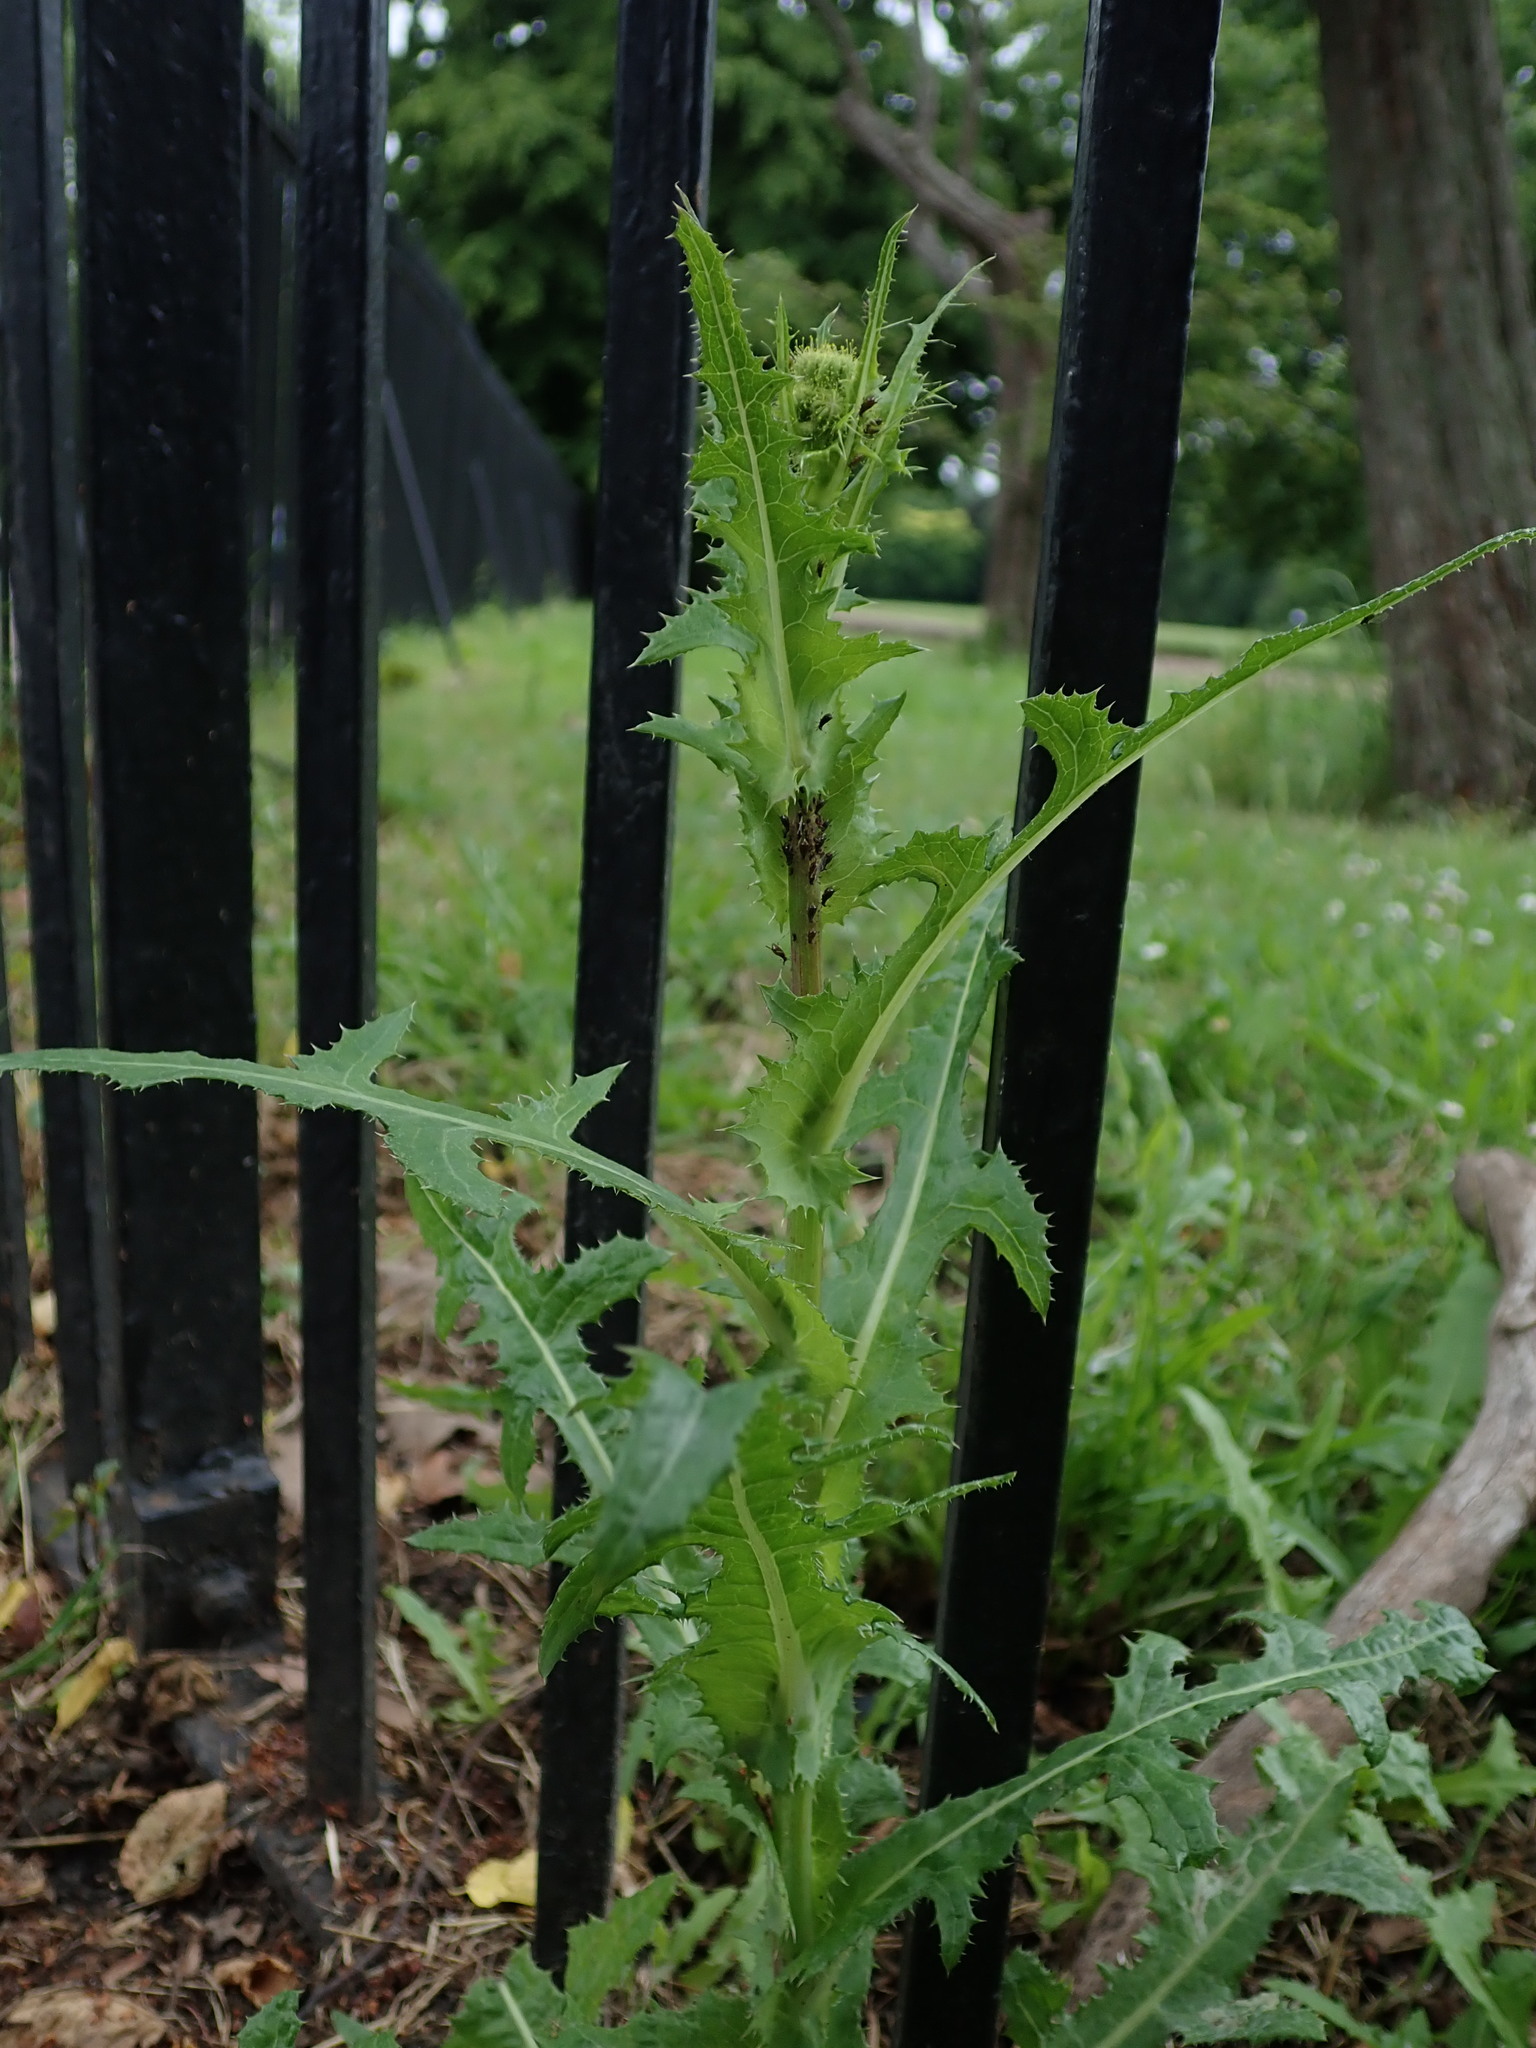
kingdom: Plantae
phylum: Tracheophyta
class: Magnoliopsida
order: Asterales
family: Asteraceae
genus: Sonchus
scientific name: Sonchus arvensis
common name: Perennial sow-thistle
